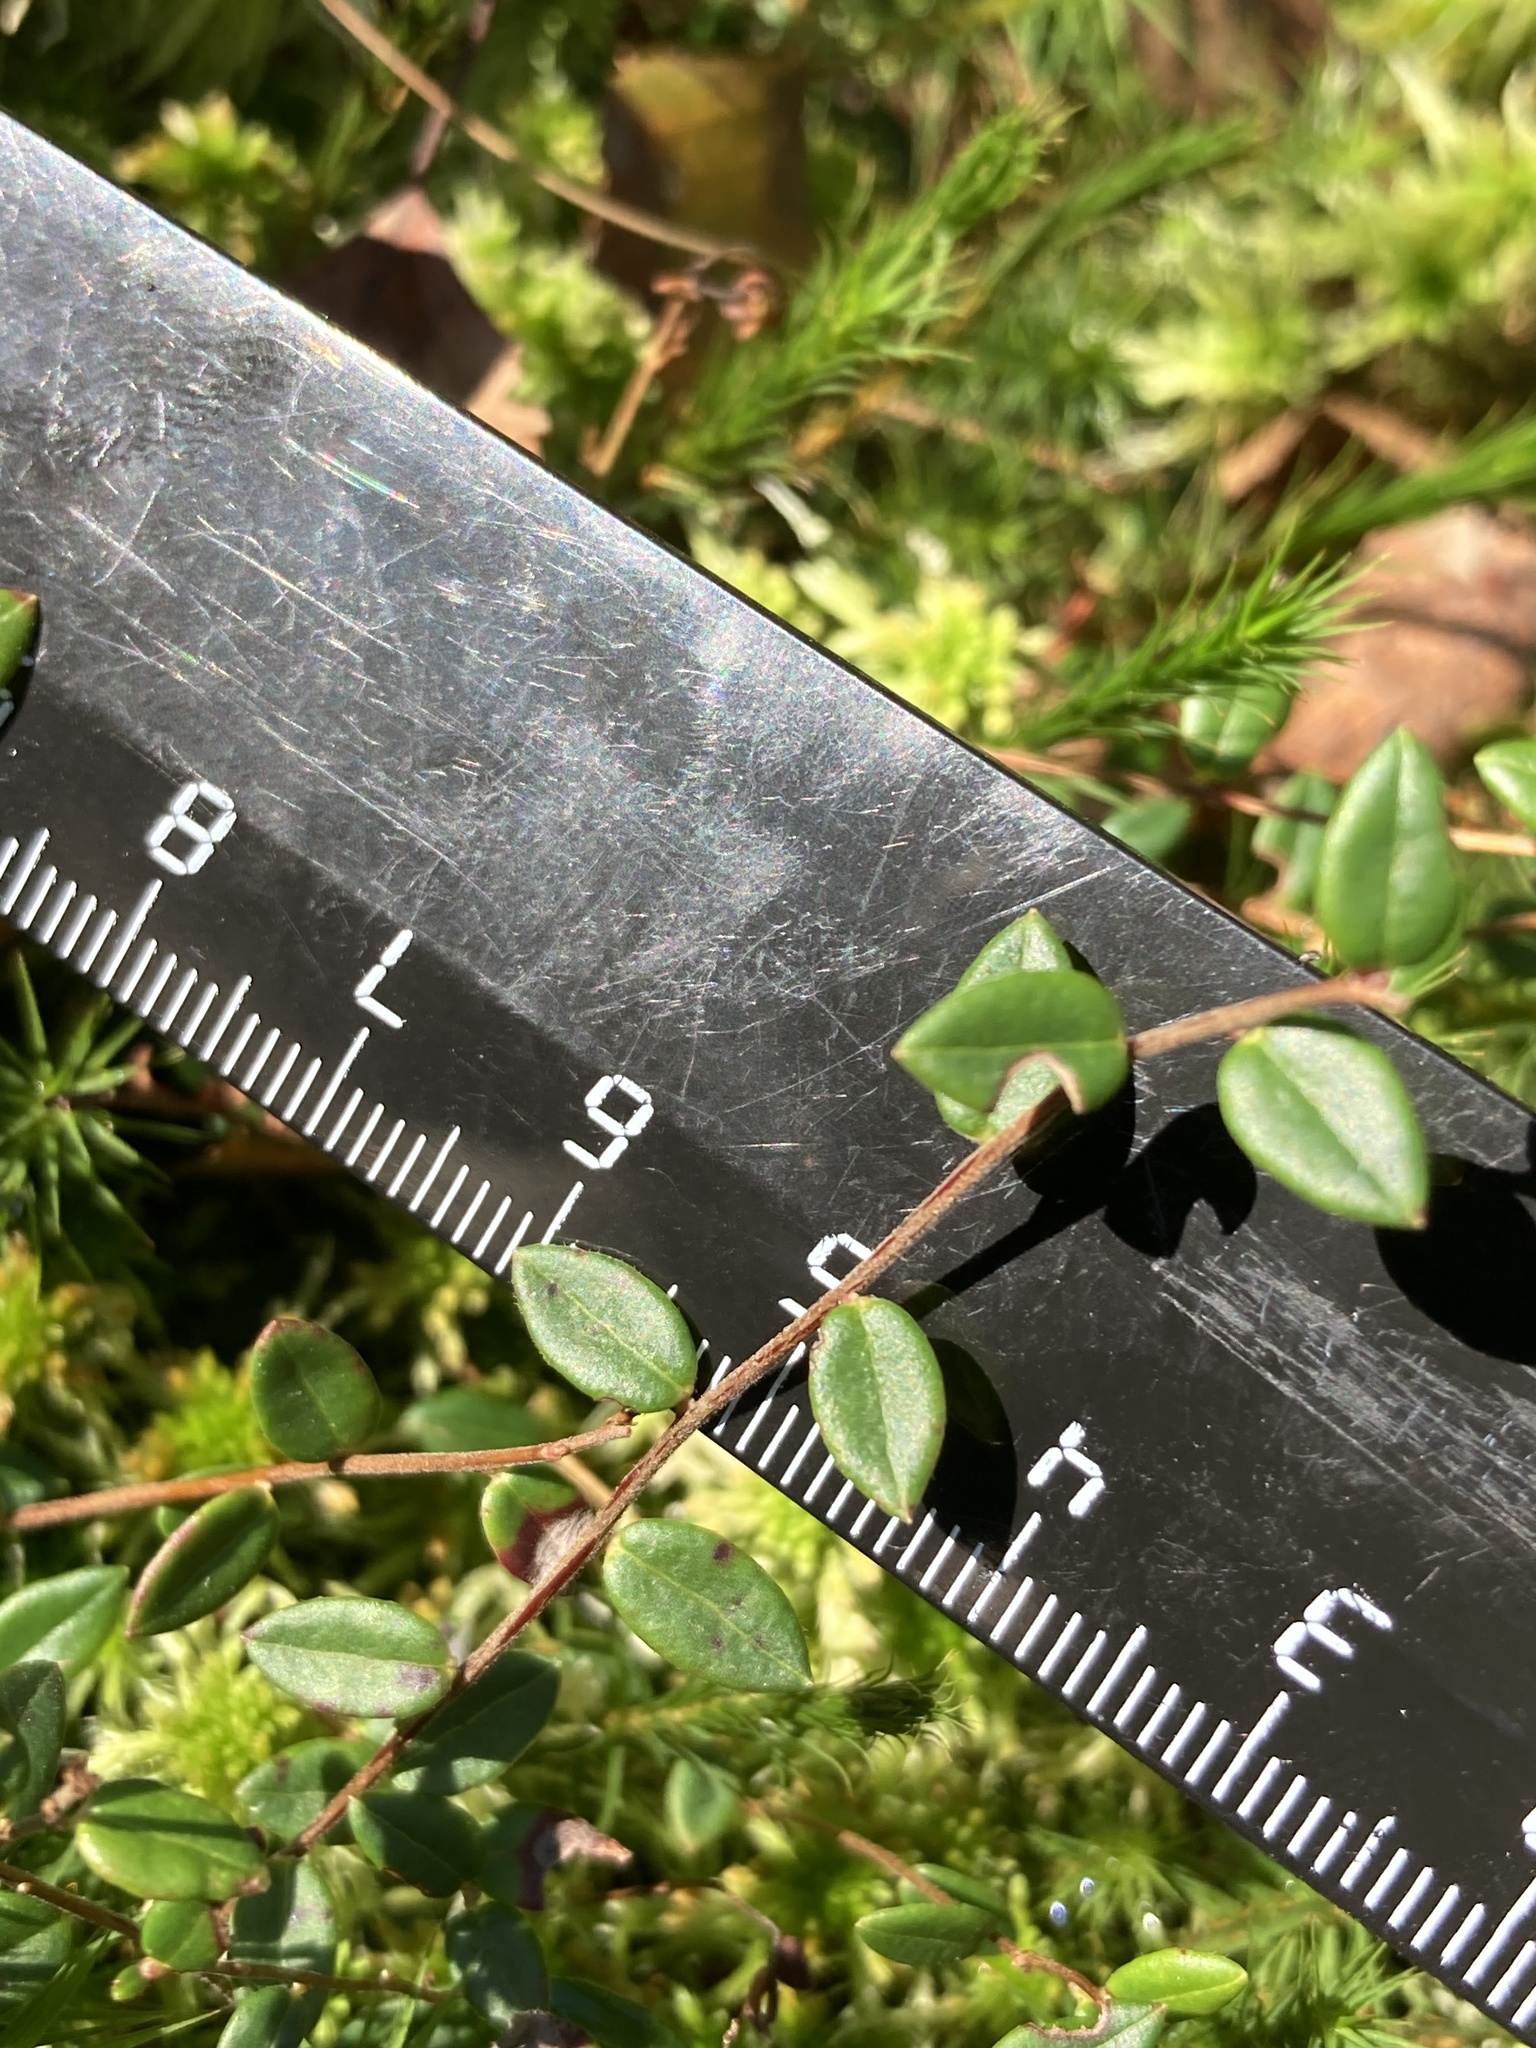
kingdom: Plantae
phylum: Tracheophyta
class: Magnoliopsida
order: Ericales
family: Ericaceae
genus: Vaccinium
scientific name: Vaccinium oxycoccos
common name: Cranberry
